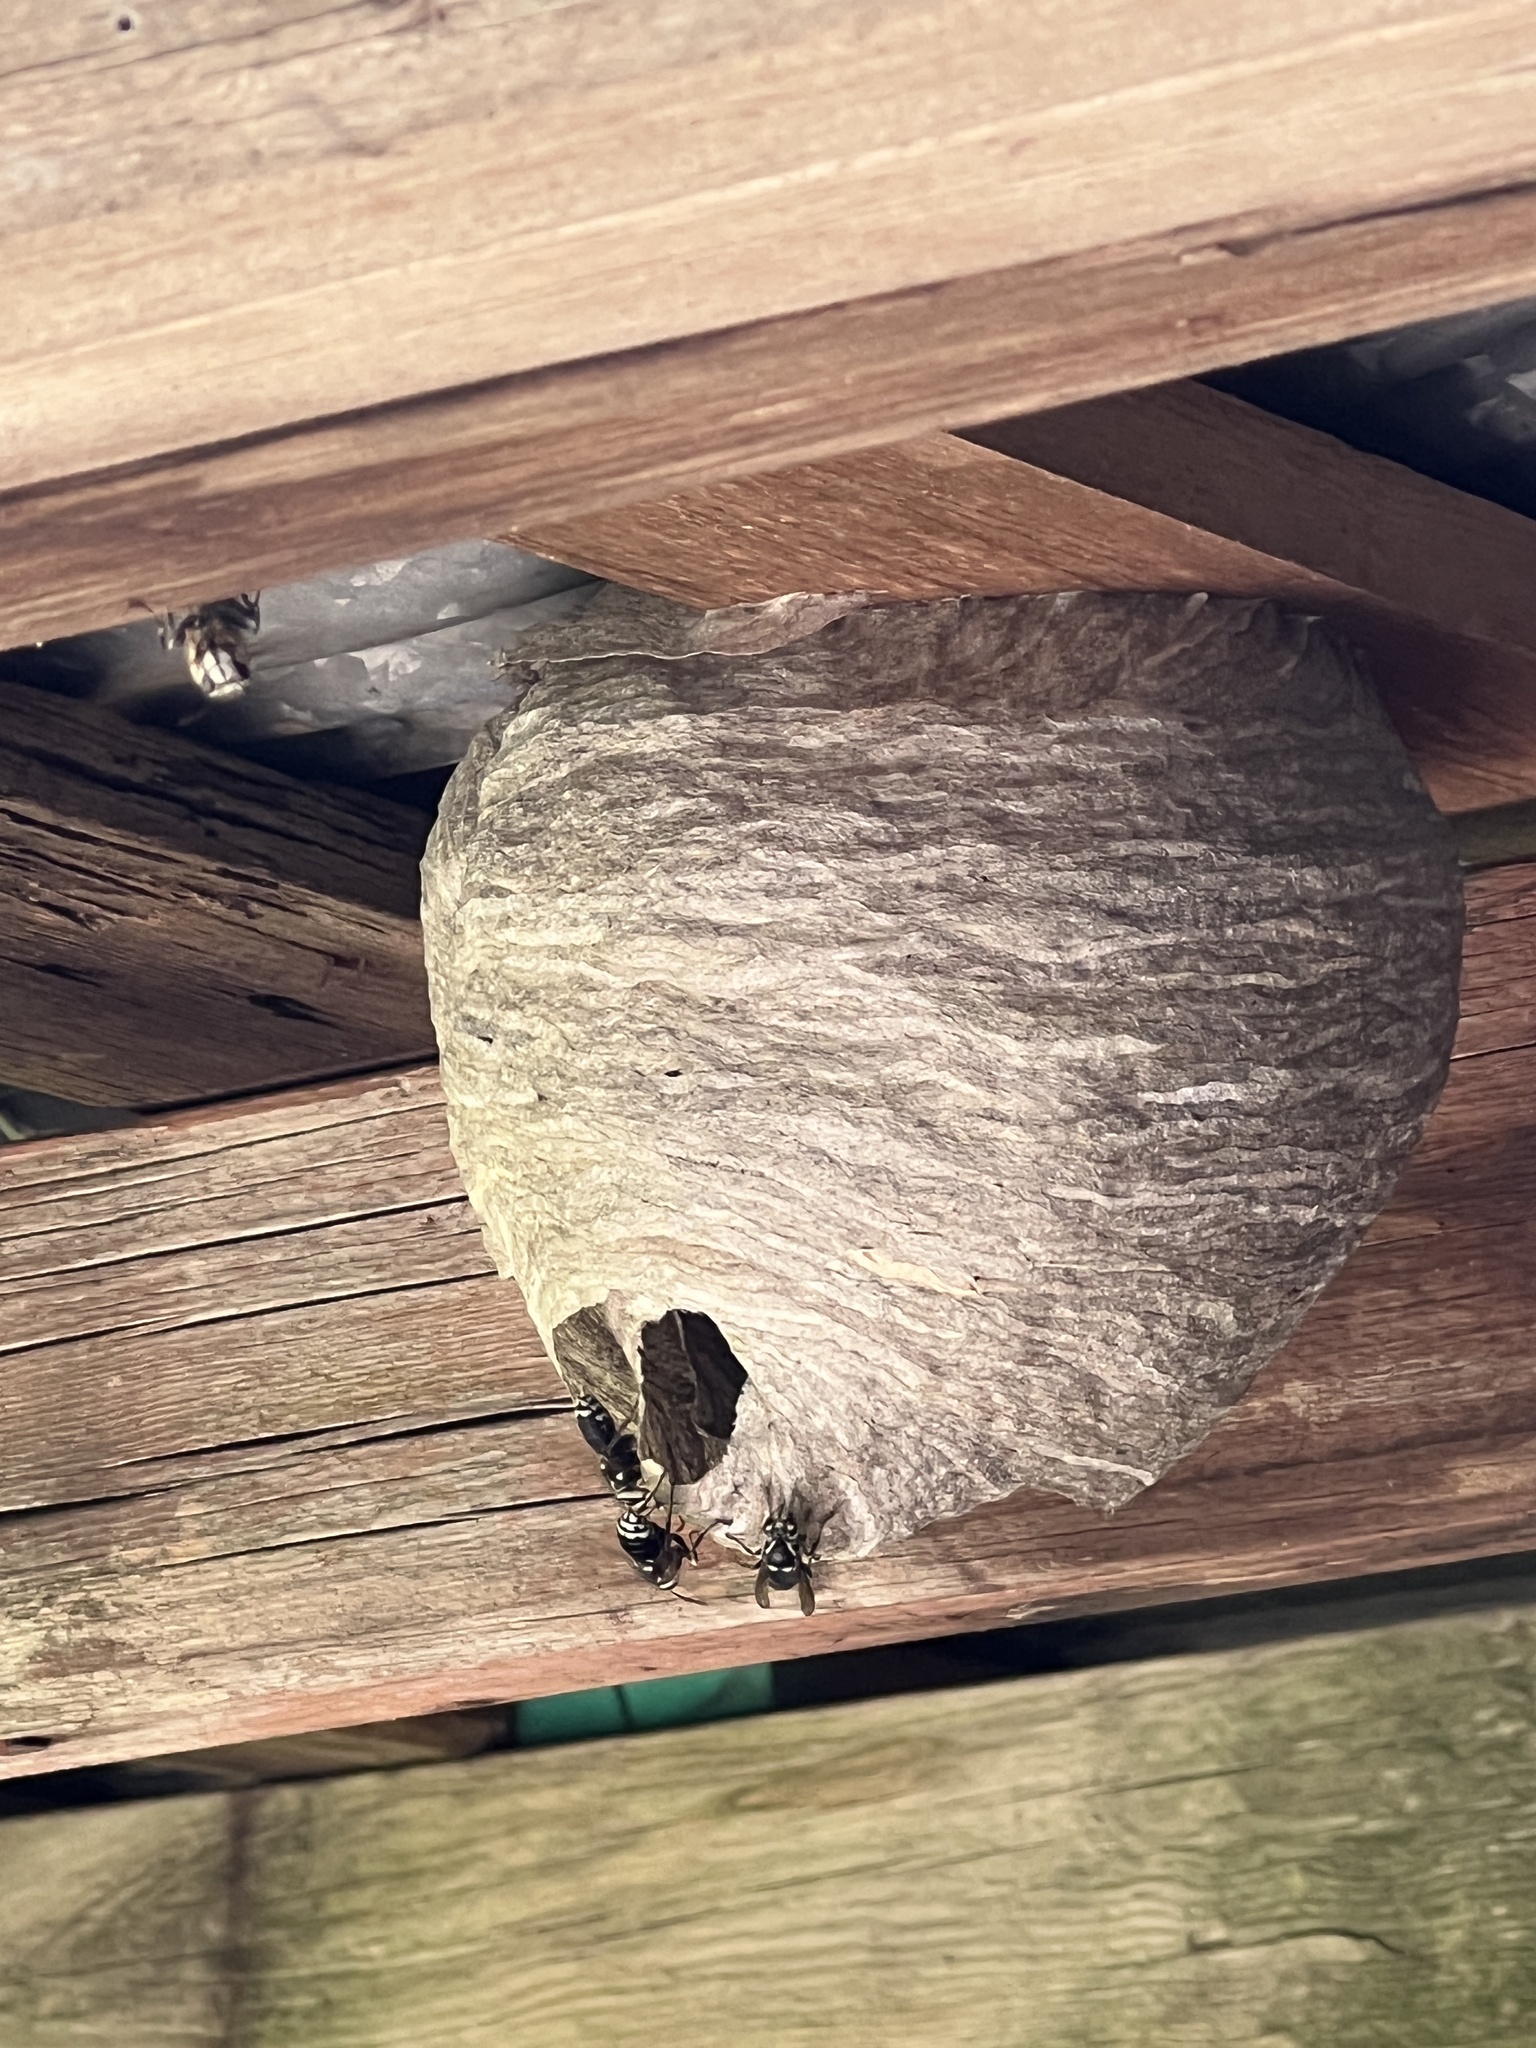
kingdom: Animalia
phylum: Arthropoda
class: Insecta
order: Hymenoptera
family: Vespidae
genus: Dolichovespula
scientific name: Dolichovespula maculata
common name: Bald-faced hornet
